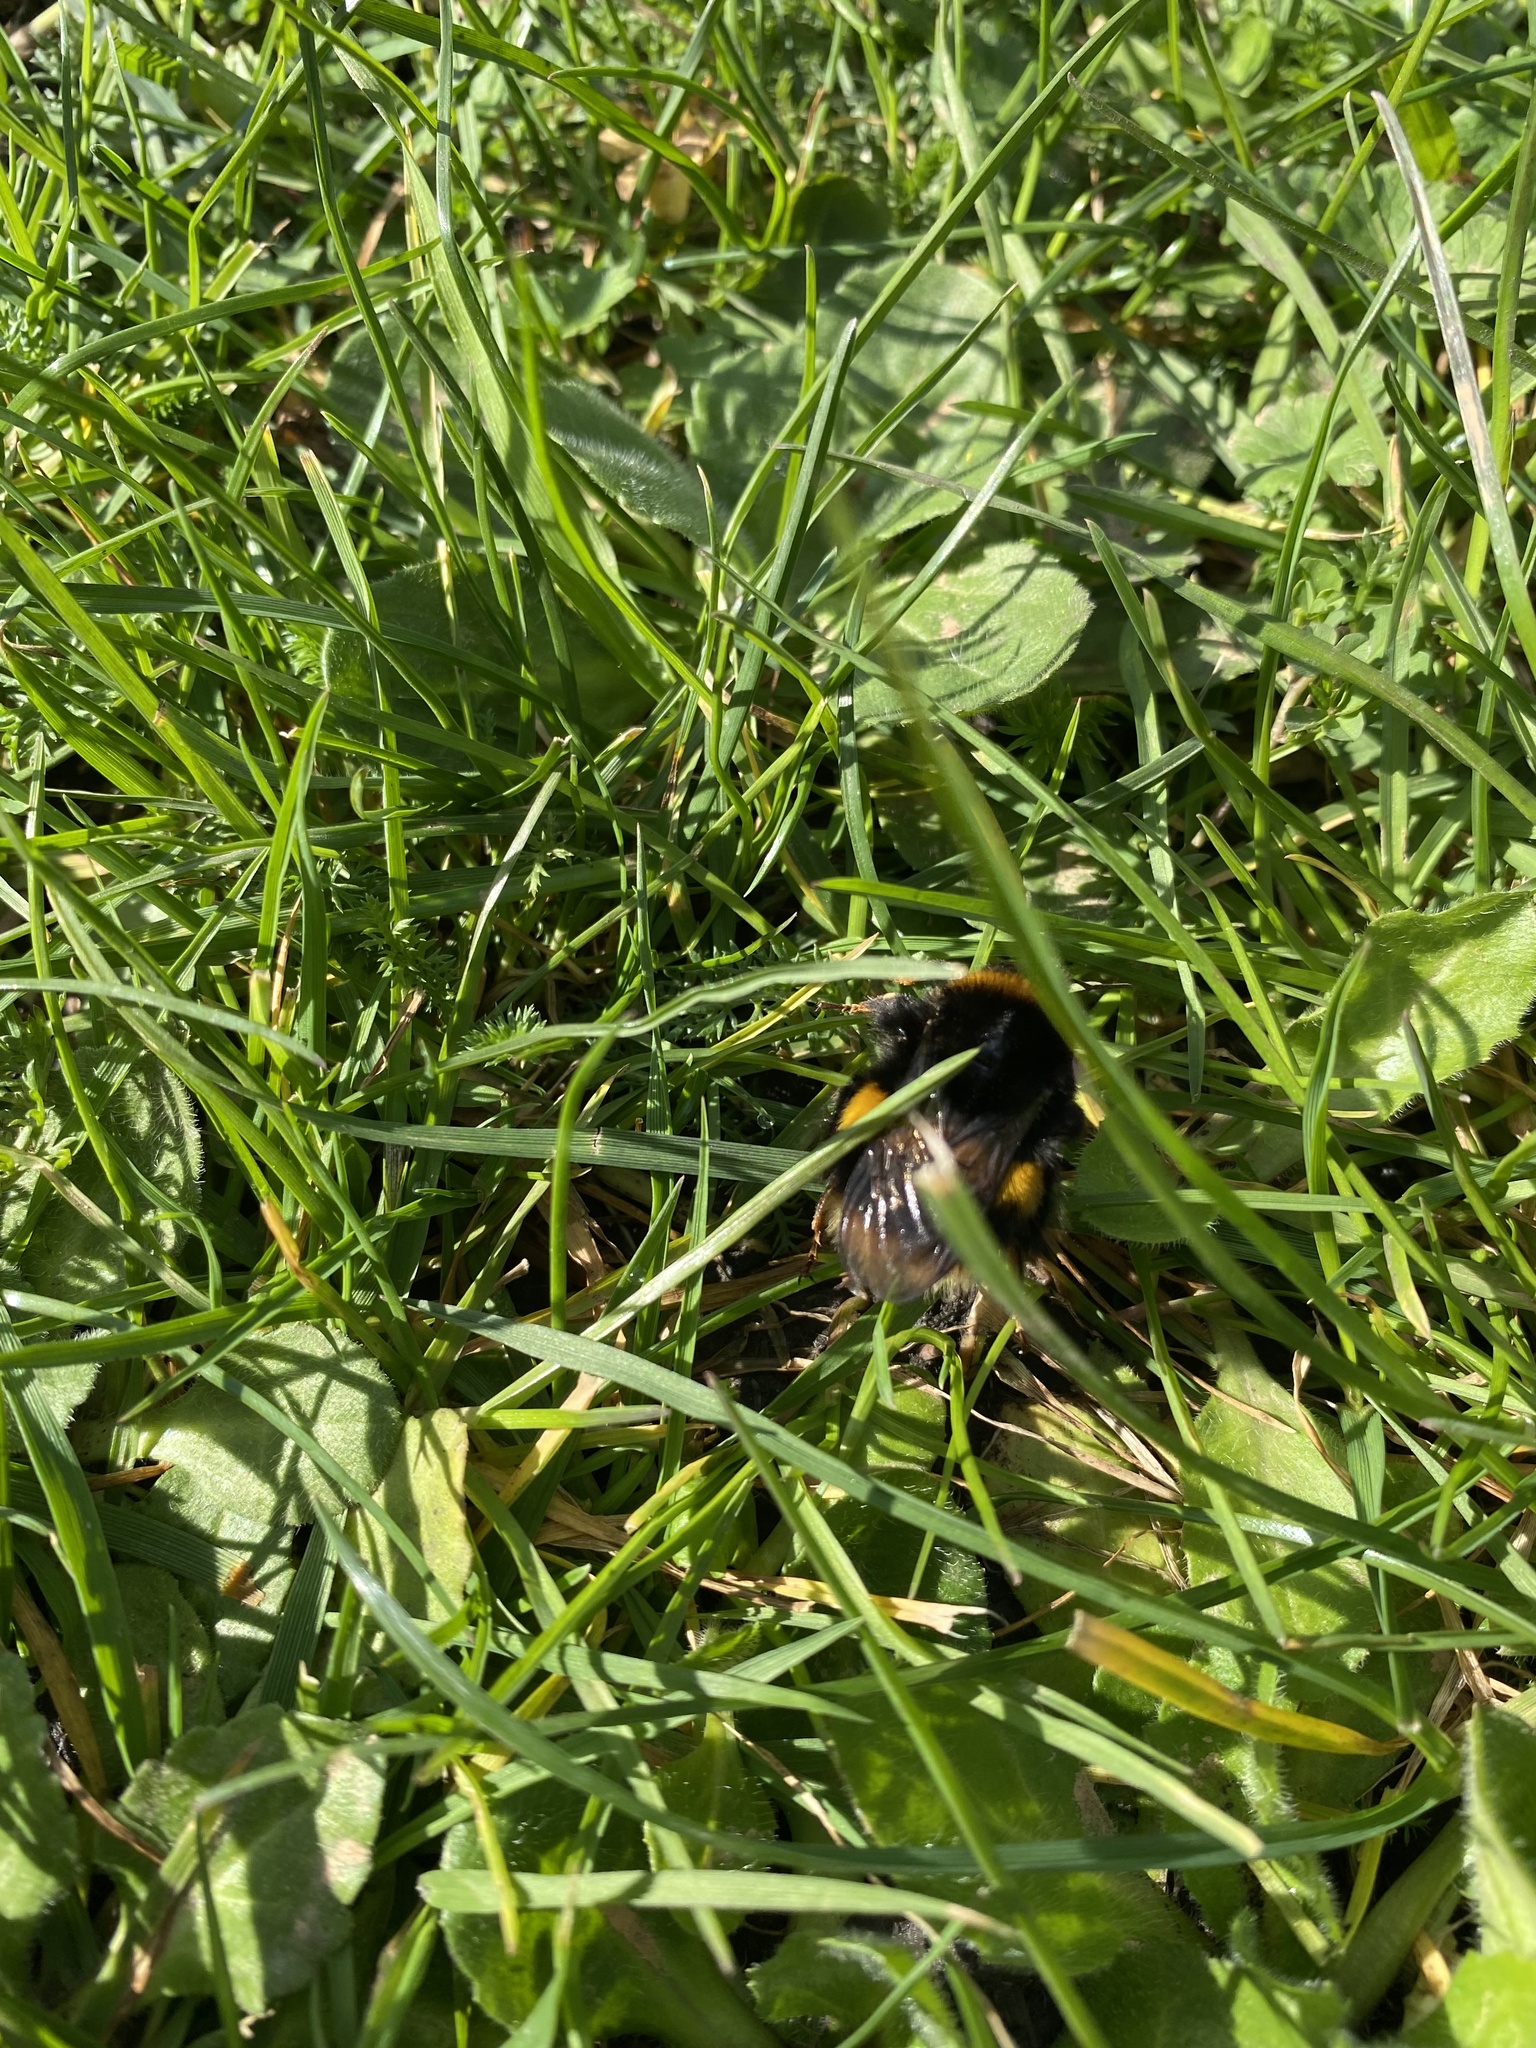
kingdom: Animalia
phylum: Arthropoda
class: Insecta
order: Hymenoptera
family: Apidae
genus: Bombus
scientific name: Bombus terrestris
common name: Buff-tailed bumblebee
